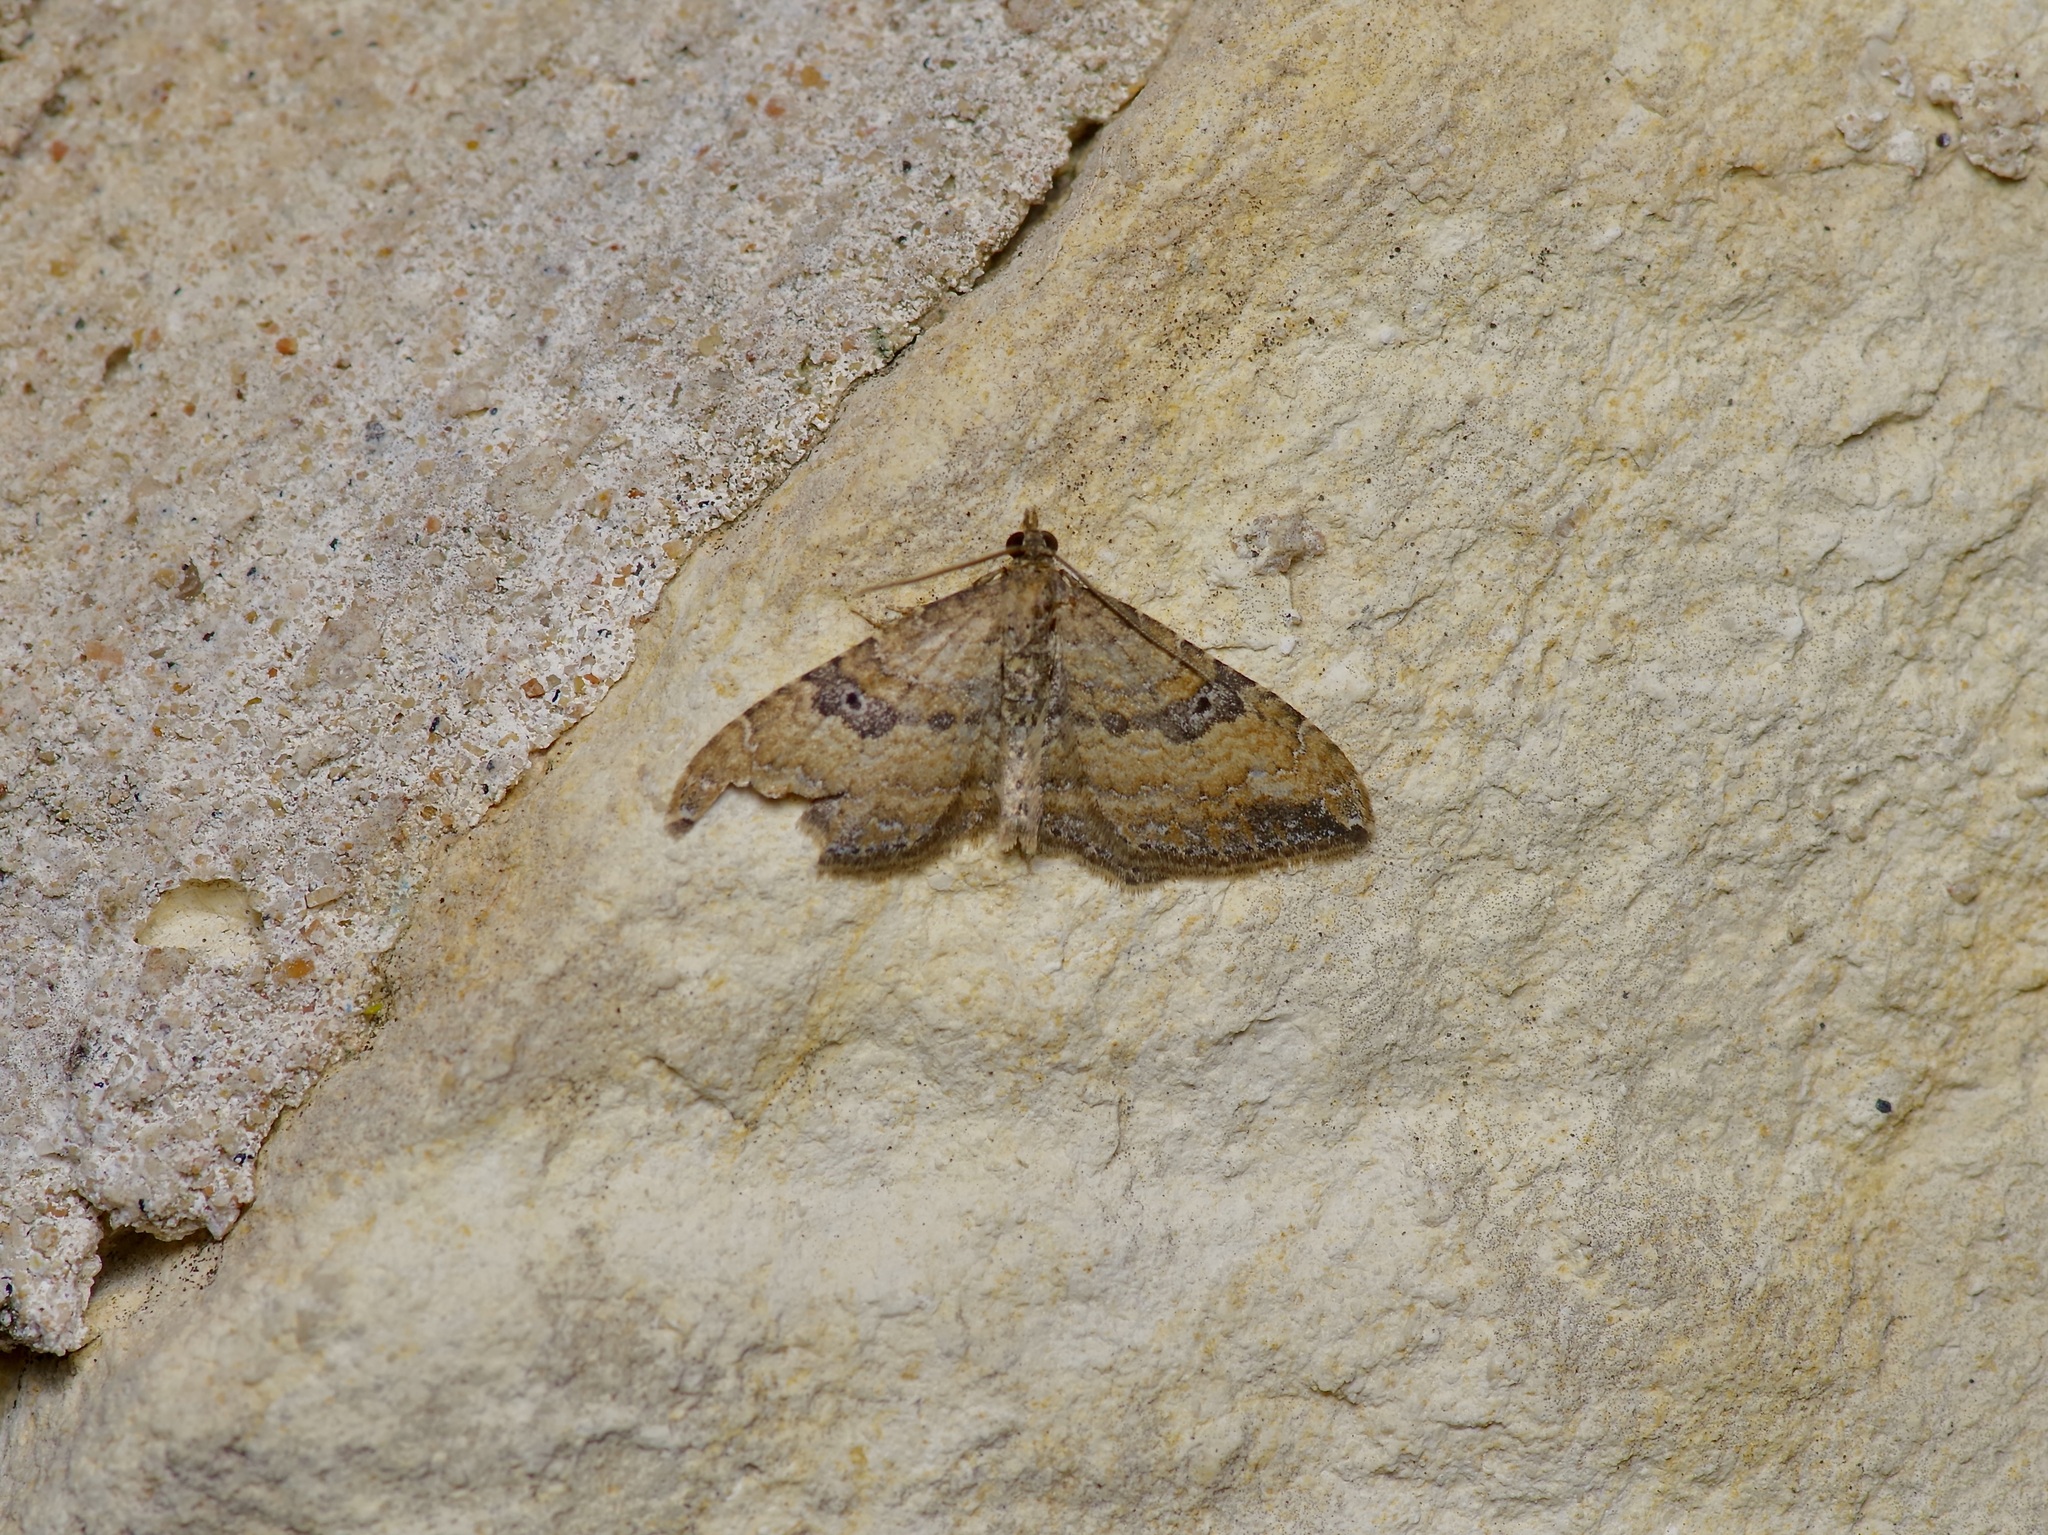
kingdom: Animalia
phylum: Arthropoda
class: Insecta
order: Lepidoptera
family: Geometridae
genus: Orthonama
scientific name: Orthonama obstipata
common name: The gem
